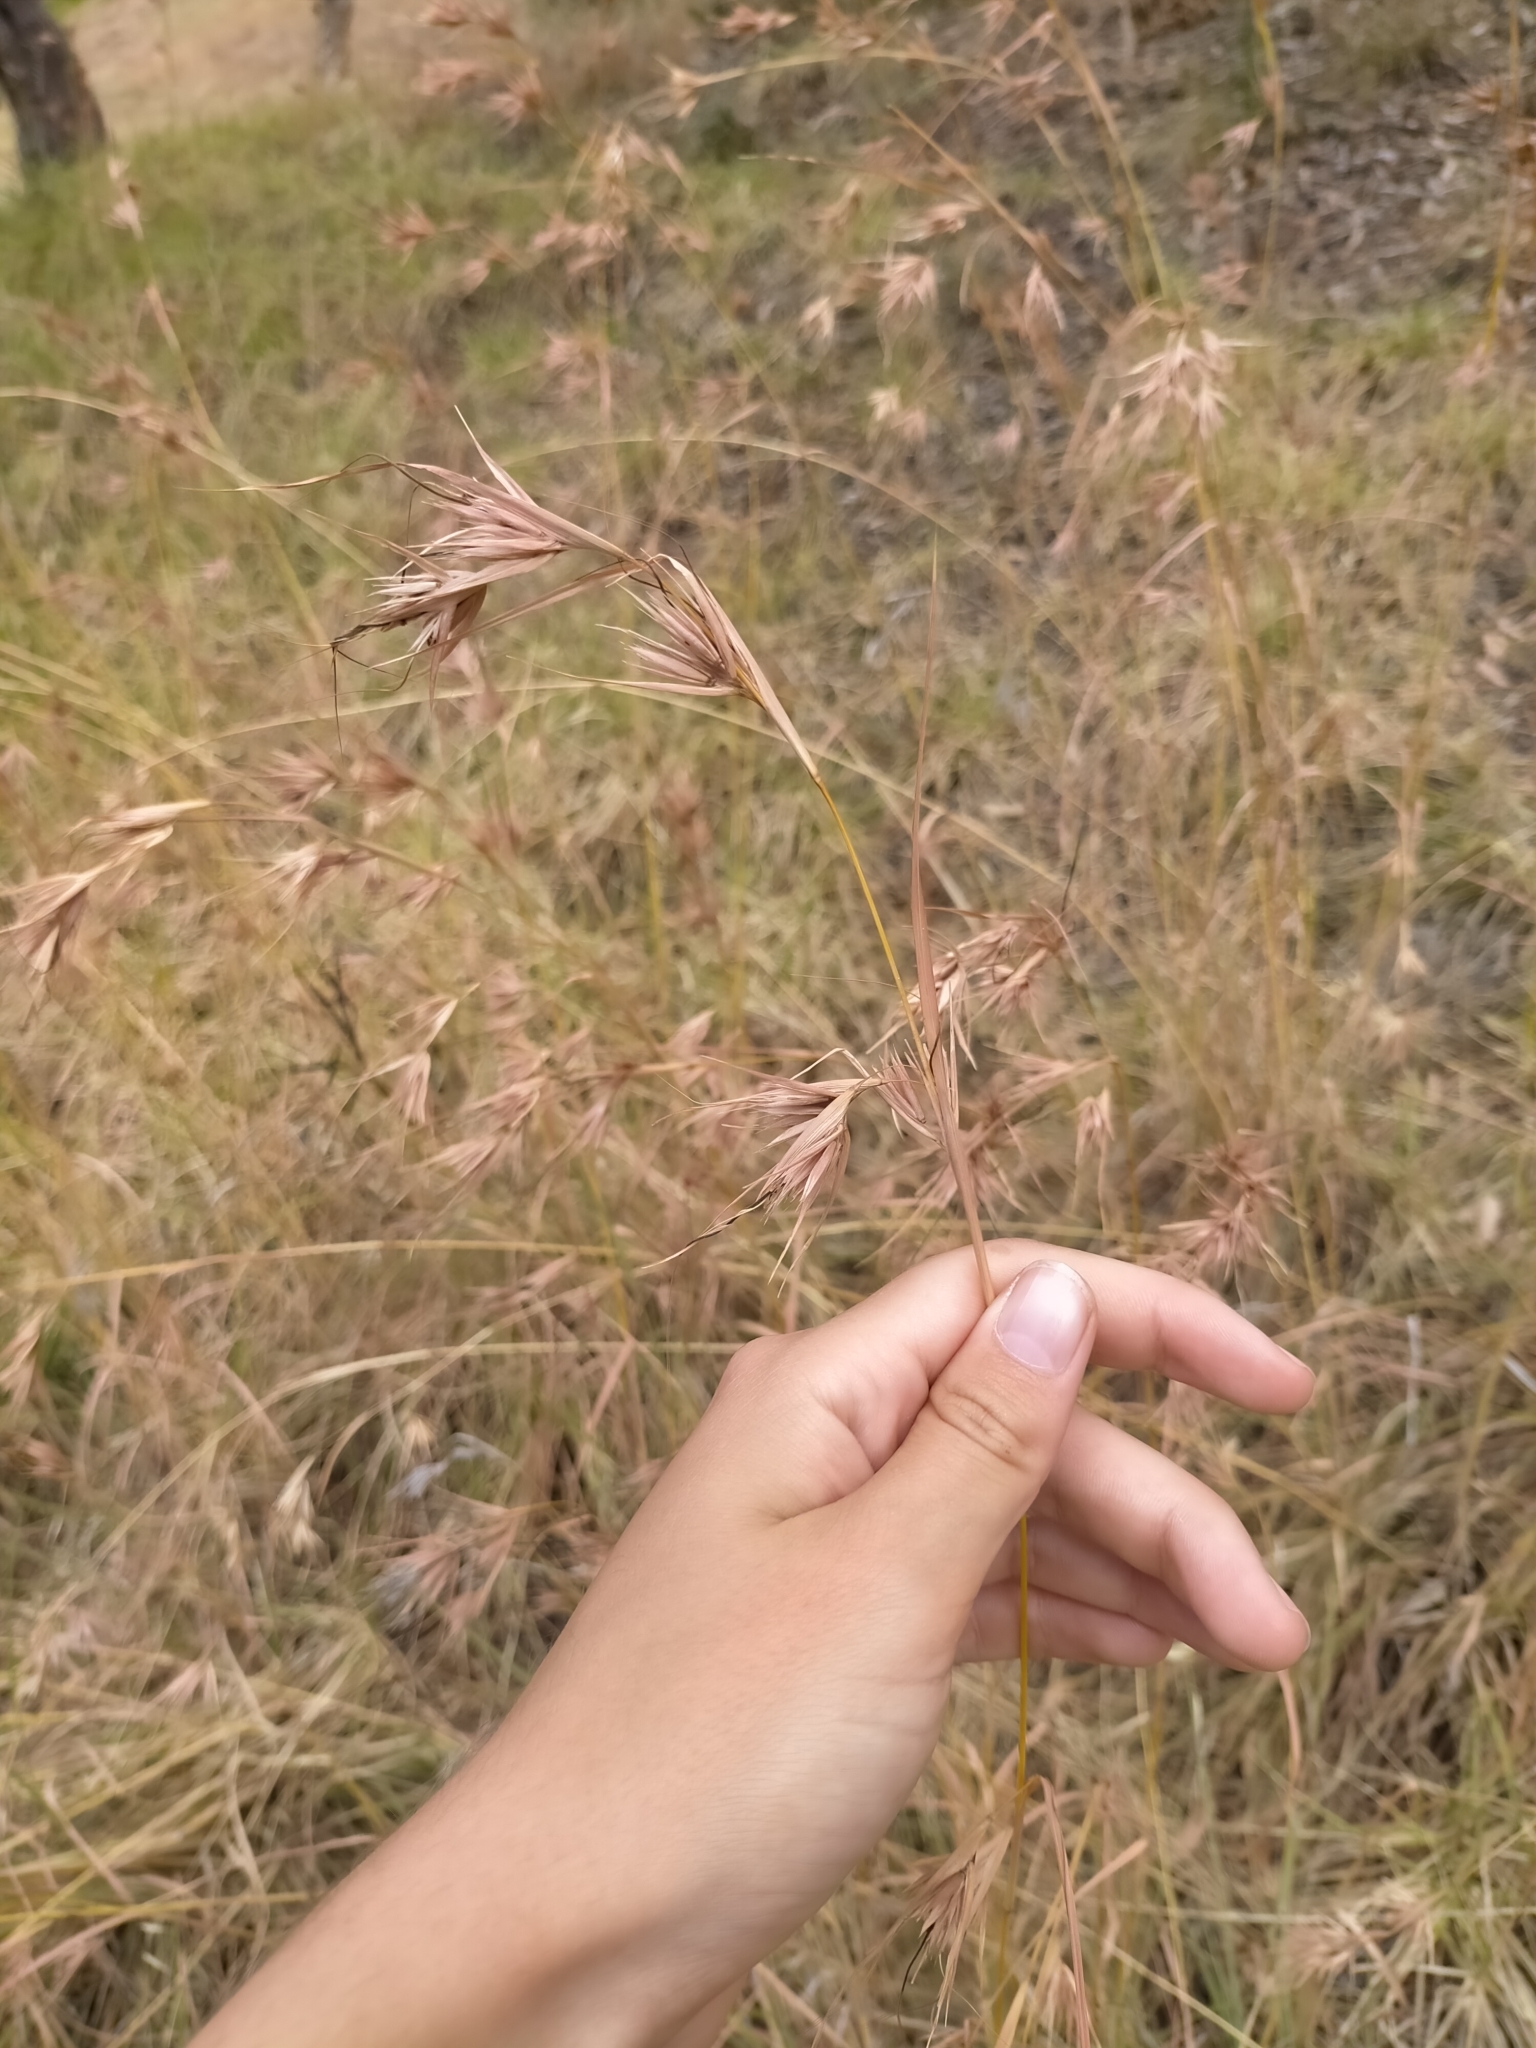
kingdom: Plantae
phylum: Tracheophyta
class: Liliopsida
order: Poales
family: Poaceae
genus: Themeda
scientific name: Themeda triandra
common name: Kangaroo grass
